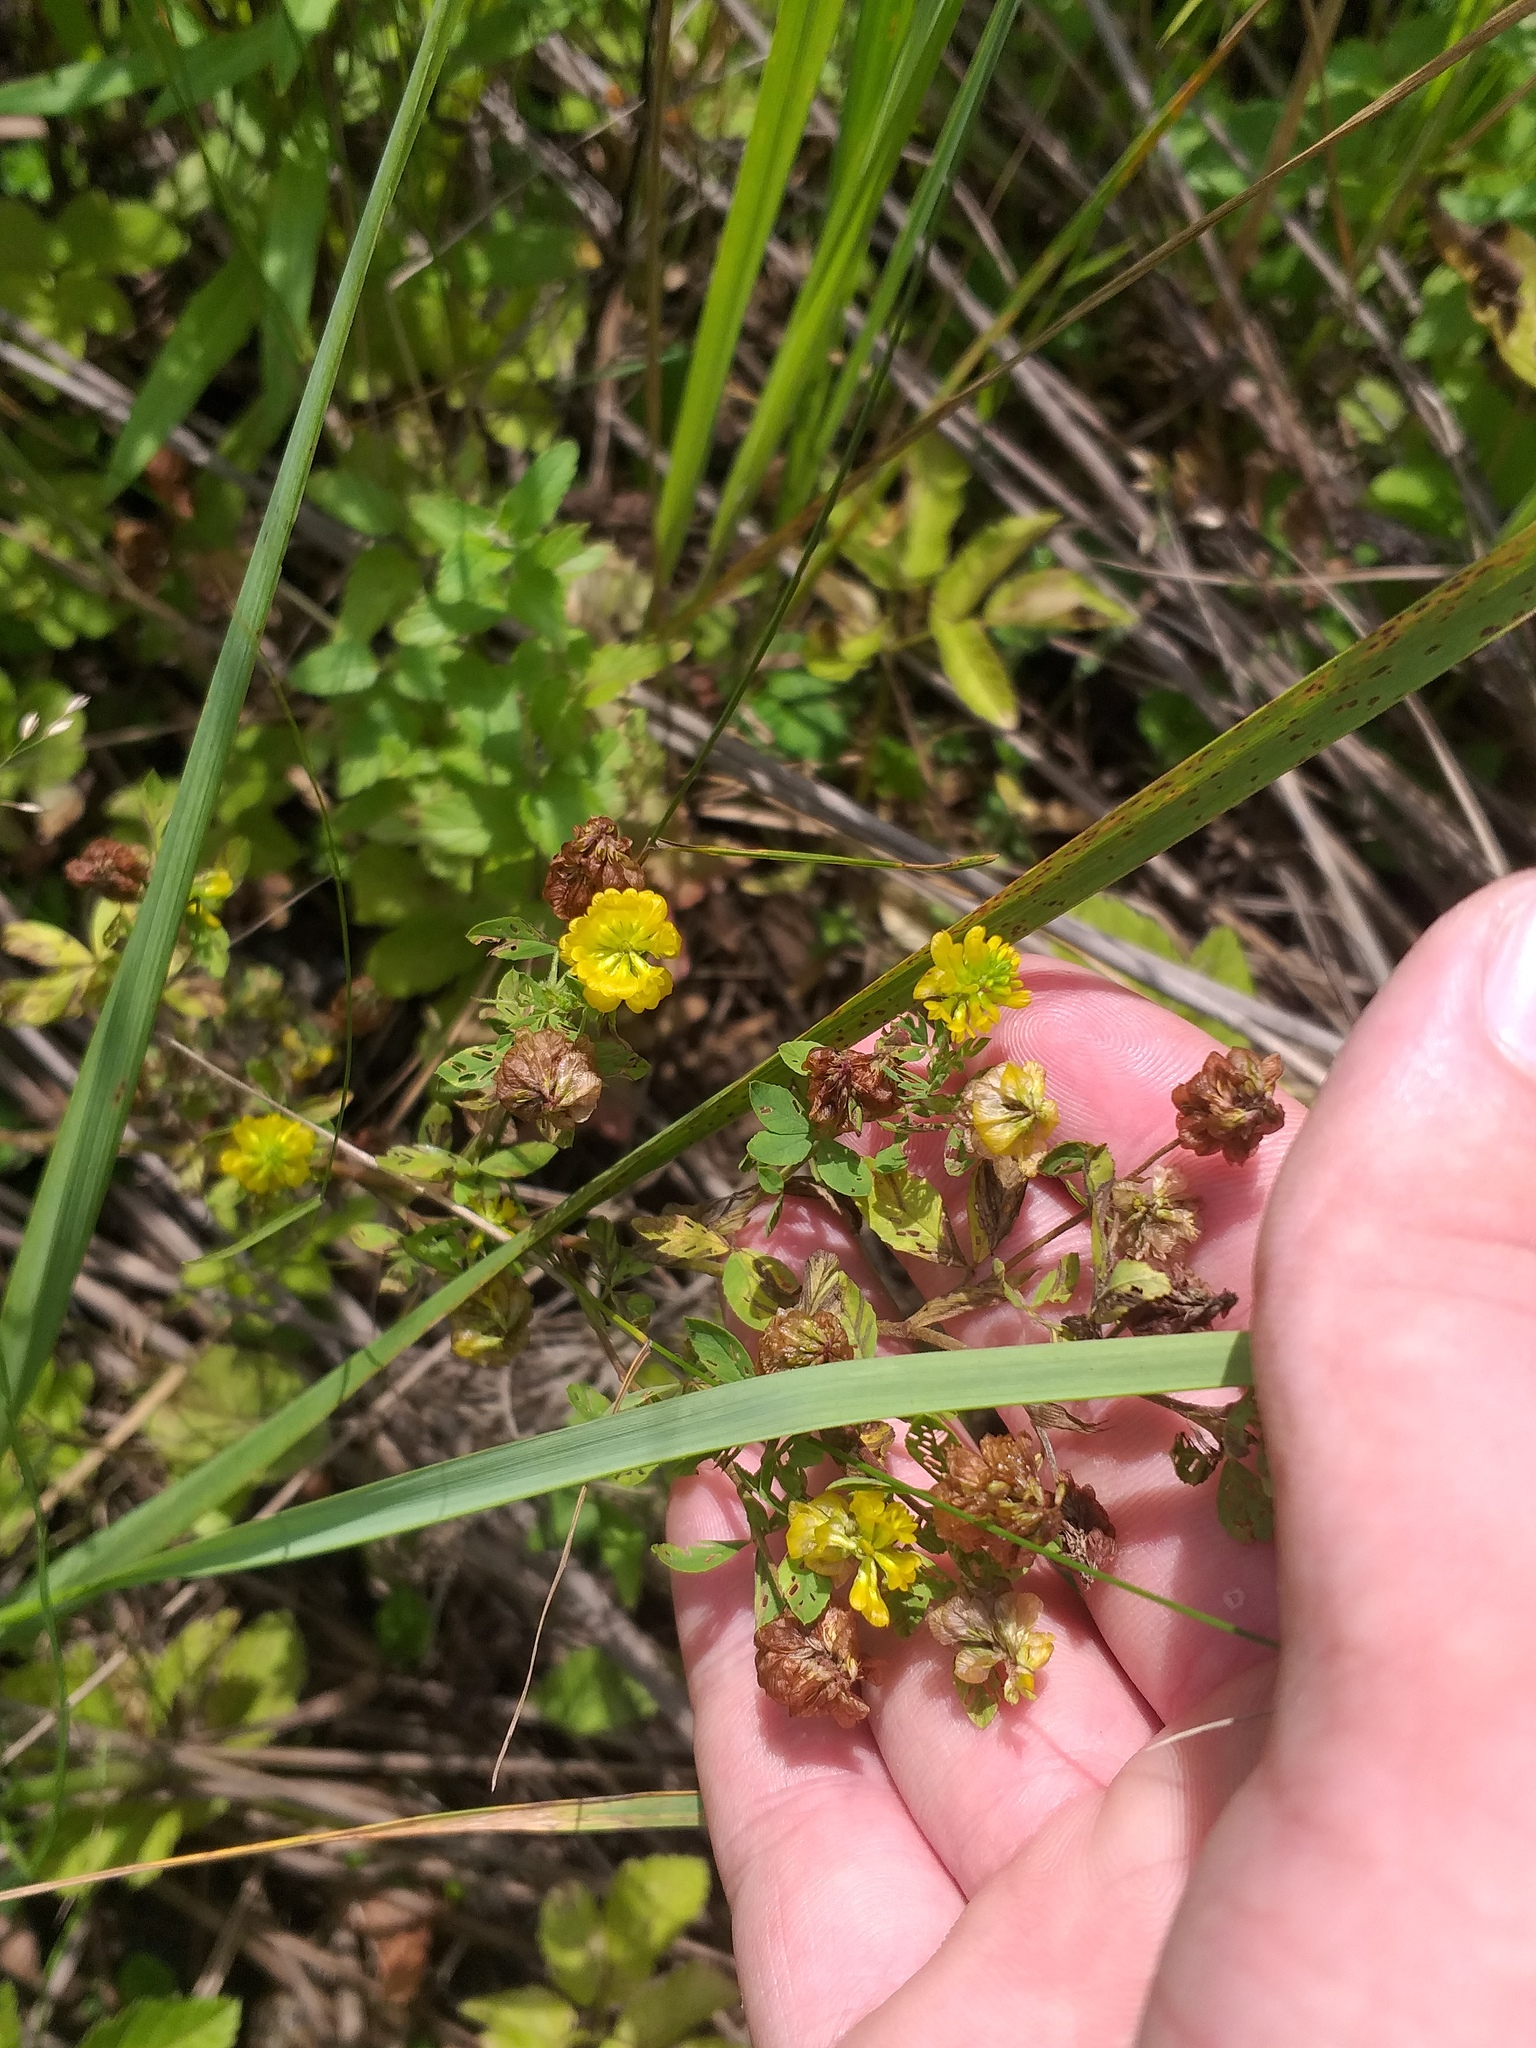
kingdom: Plantae
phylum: Tracheophyta
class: Magnoliopsida
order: Fabales
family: Fabaceae
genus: Trifolium
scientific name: Trifolium aureum
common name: Golden clover
